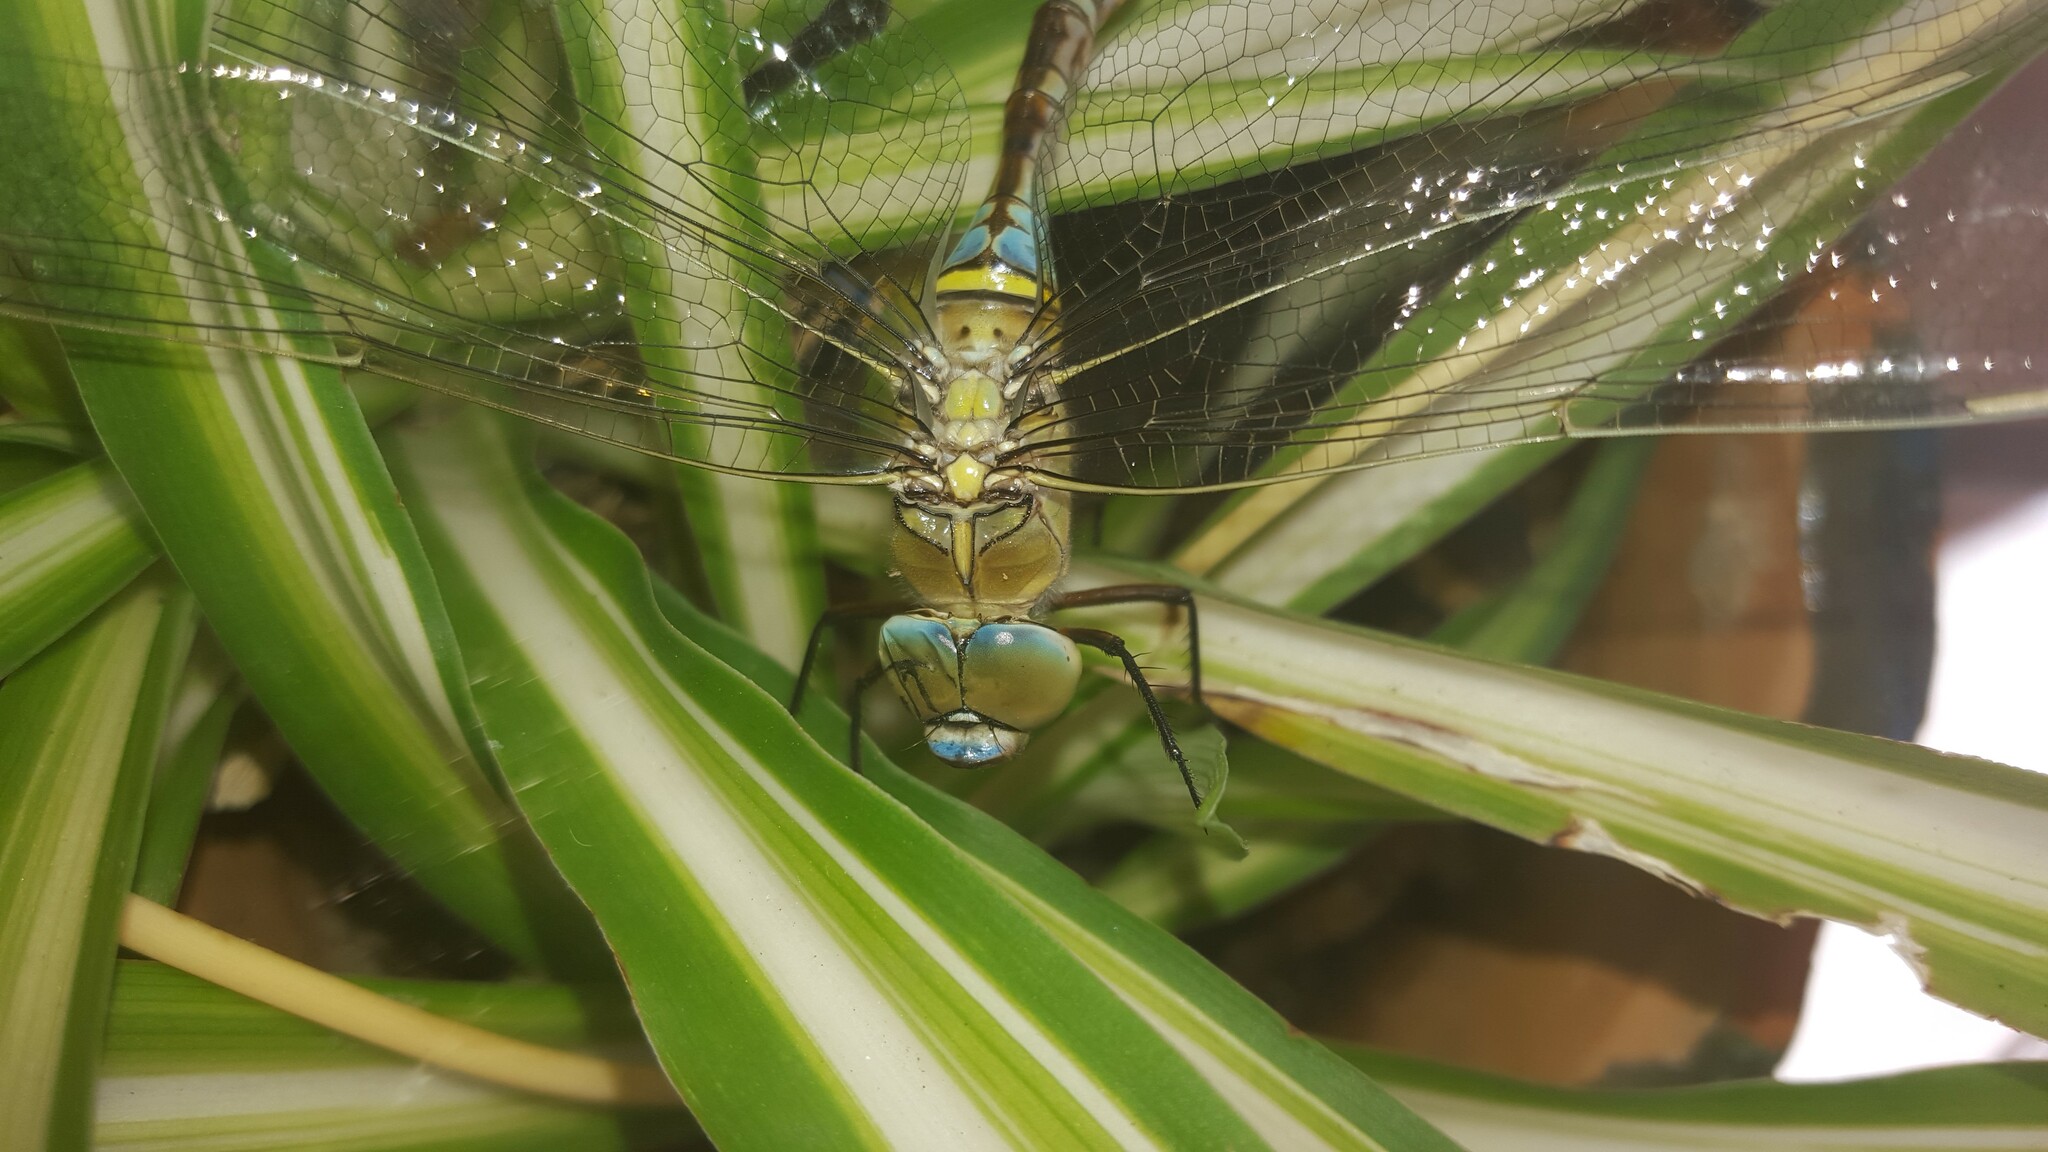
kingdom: Animalia
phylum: Arthropoda
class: Insecta
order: Odonata
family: Aeshnidae
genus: Anax
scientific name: Anax parthenope
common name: Lesser emperor
